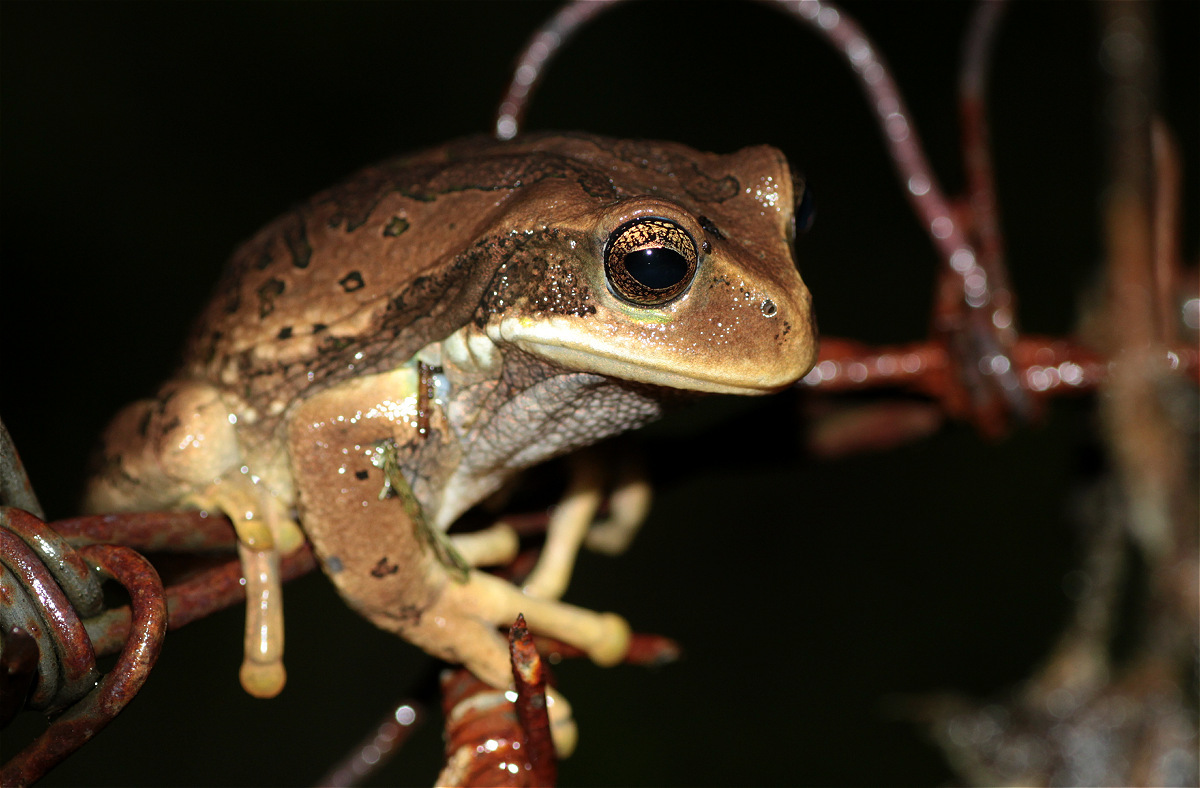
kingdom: Animalia
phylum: Chordata
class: Amphibia
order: Anura
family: Hemiphractidae
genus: Gastrotheca
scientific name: Gastrotheca cuencana
